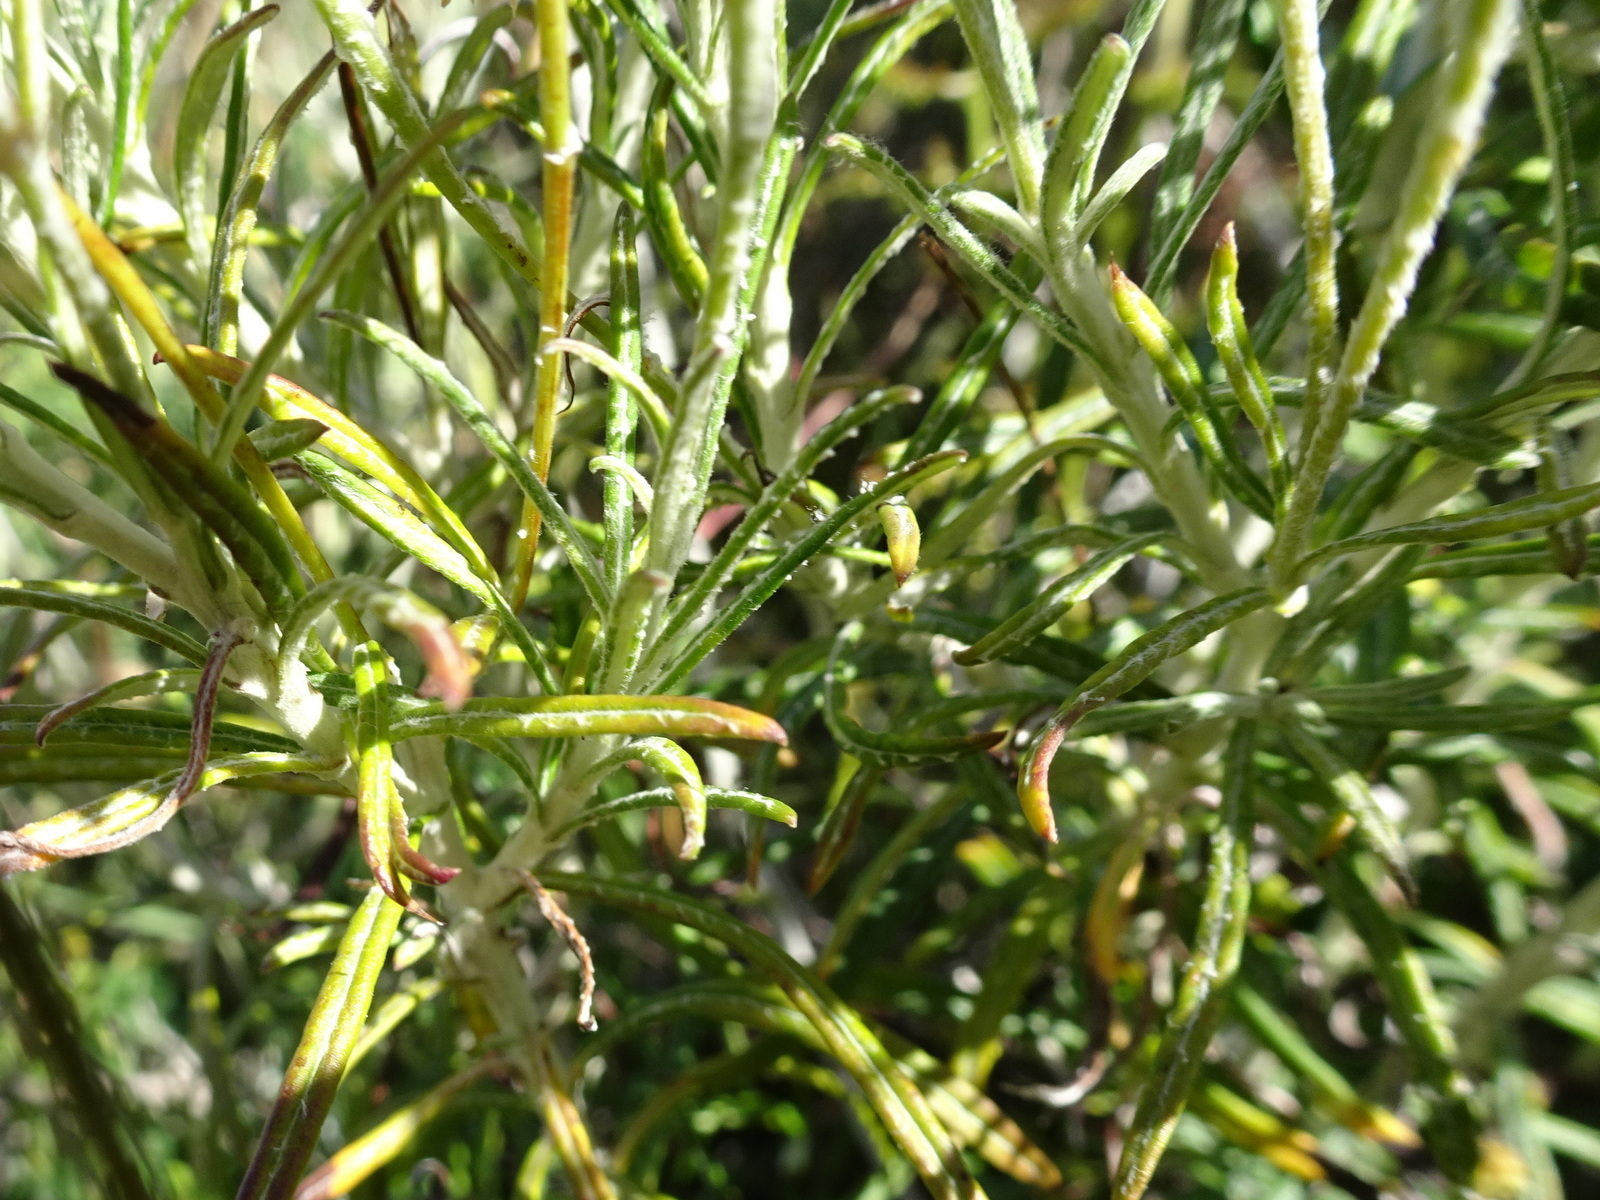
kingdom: Plantae
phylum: Tracheophyta
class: Magnoliopsida
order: Asterales
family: Asteraceae
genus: Phagnalon
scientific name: Phagnalon saxatile
